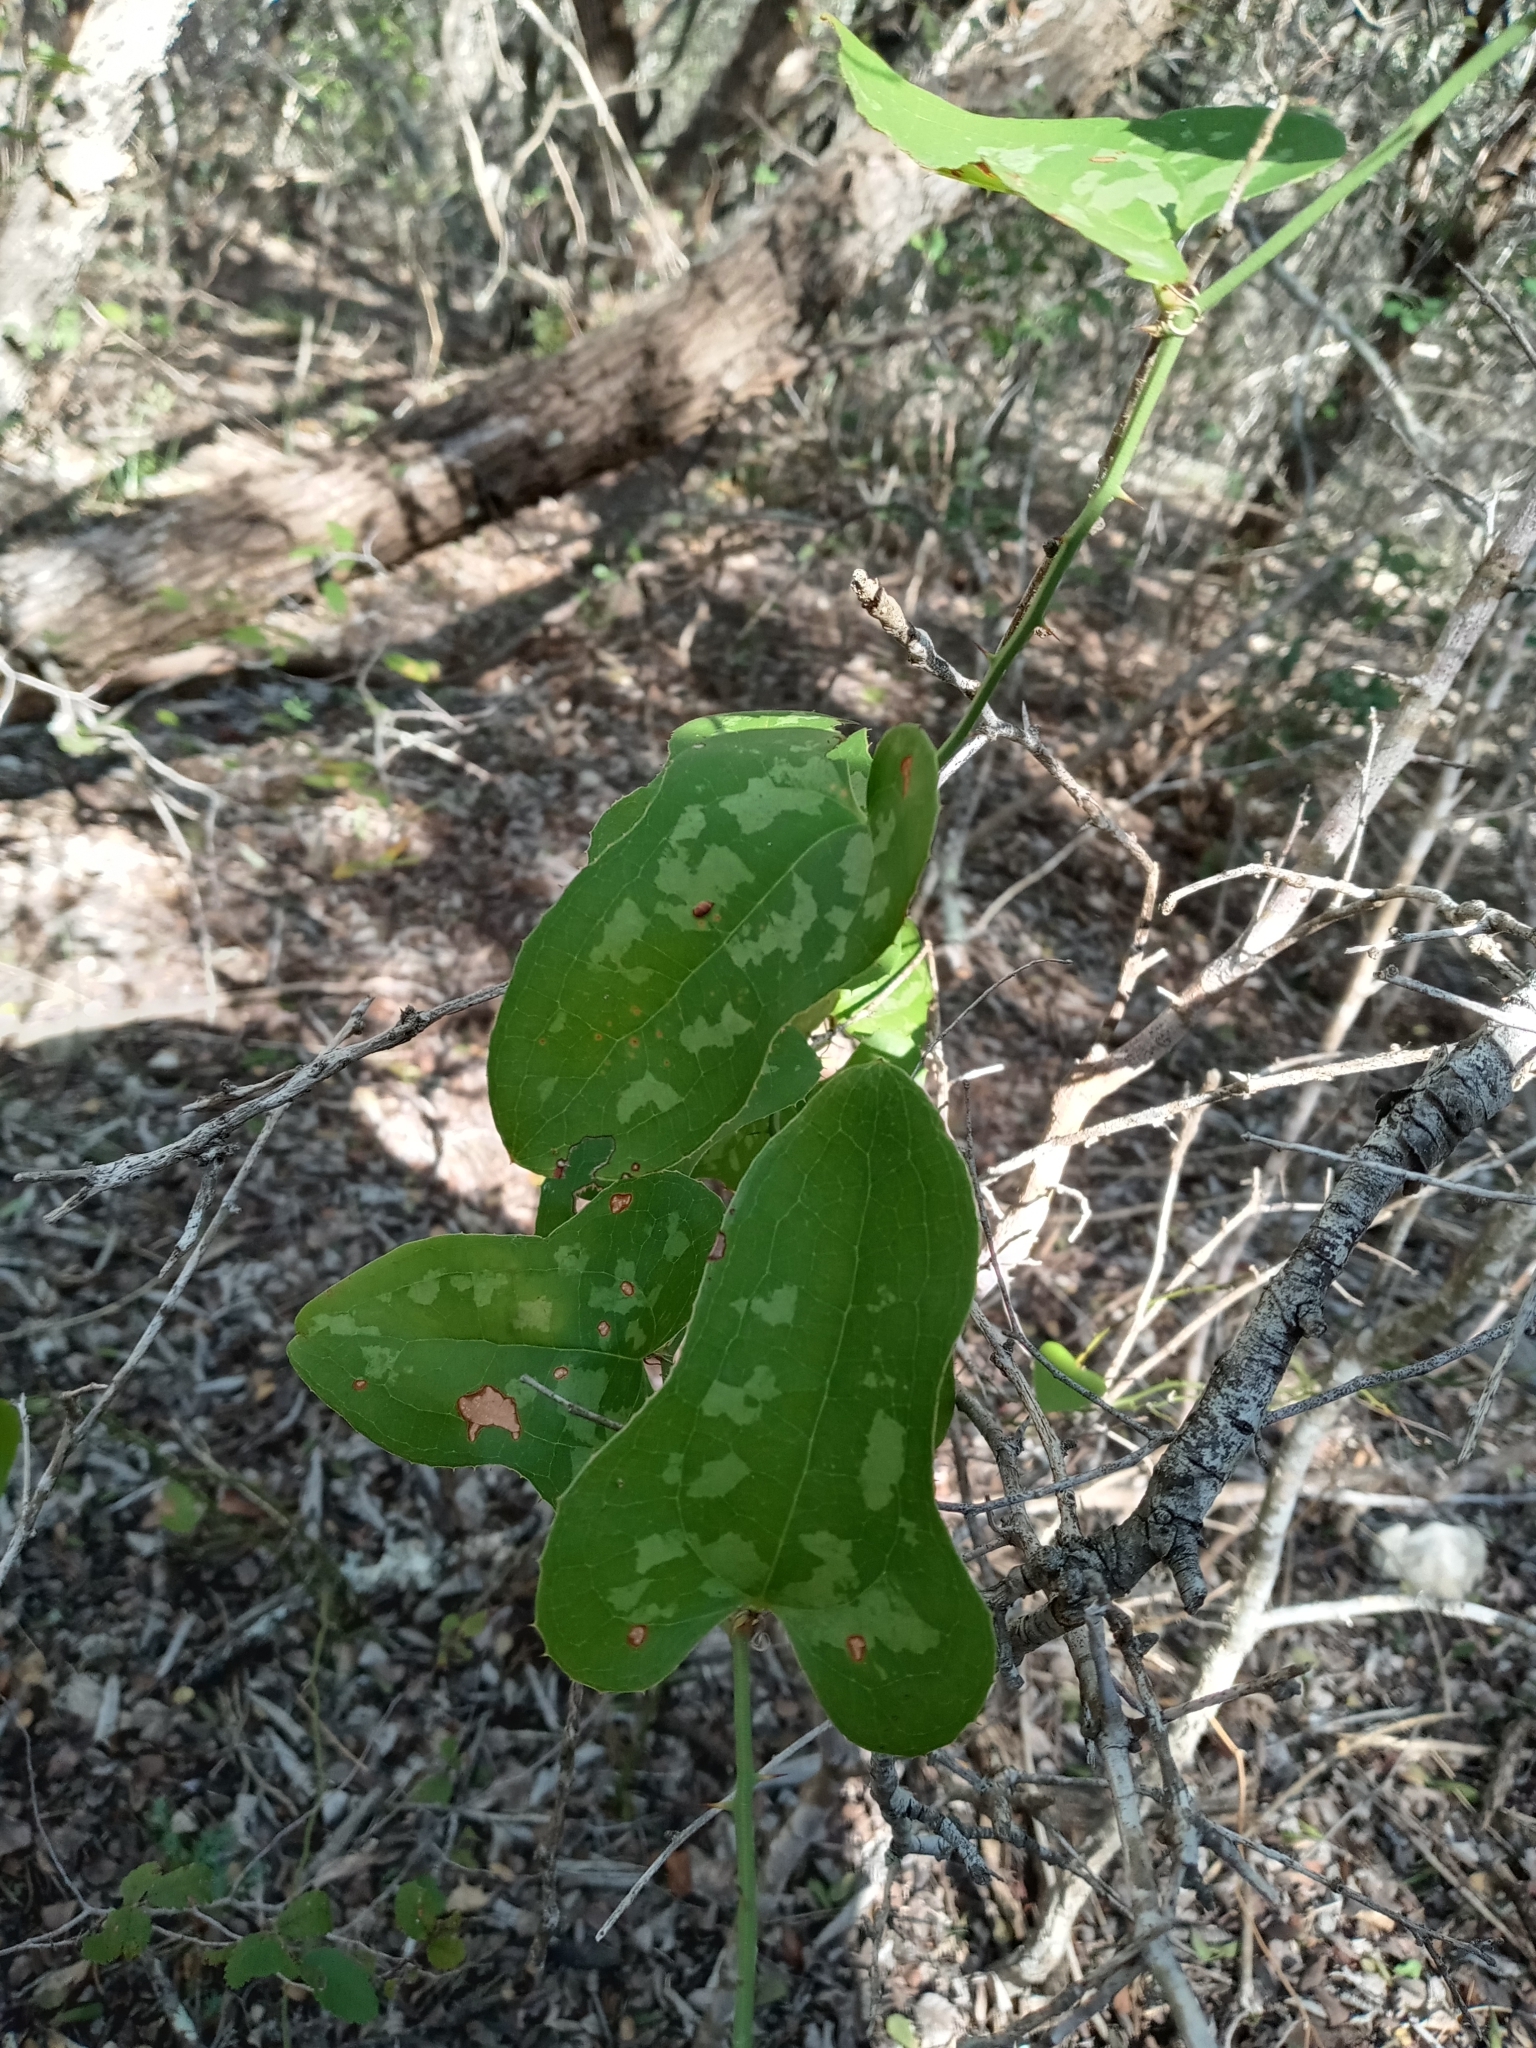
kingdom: Plantae
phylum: Tracheophyta
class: Liliopsida
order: Liliales
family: Smilacaceae
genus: Smilax
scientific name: Smilax bona-nox
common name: Catbrier
